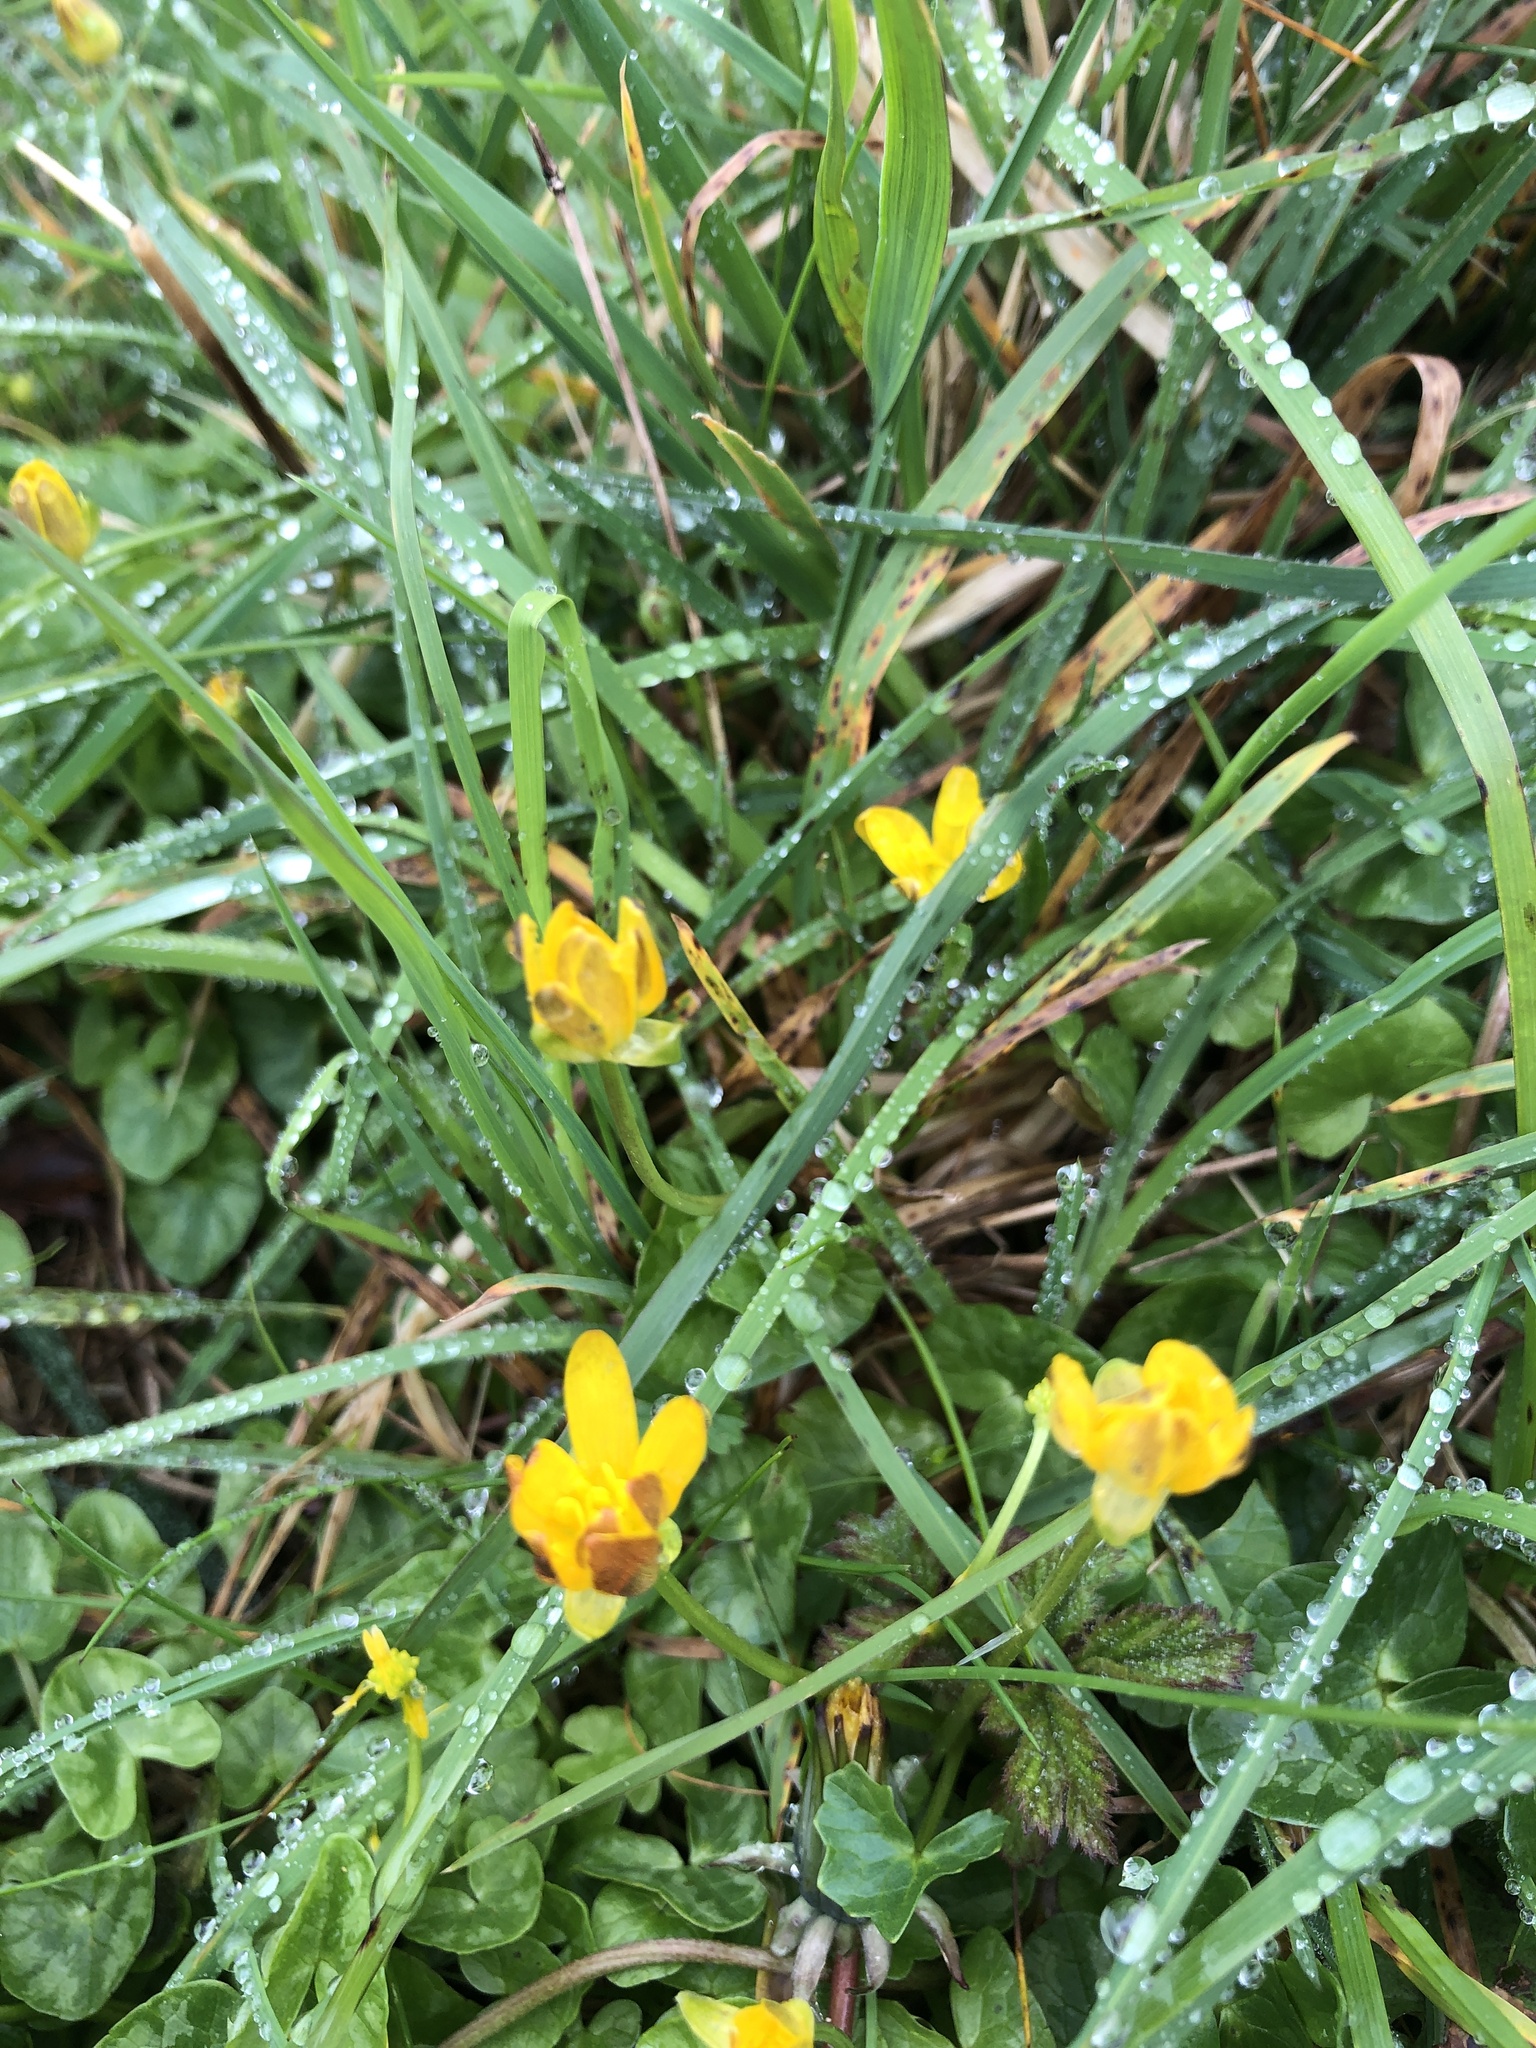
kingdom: Plantae
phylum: Tracheophyta
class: Magnoliopsida
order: Ranunculales
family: Ranunculaceae
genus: Ficaria
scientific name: Ficaria verna
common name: Lesser celandine
